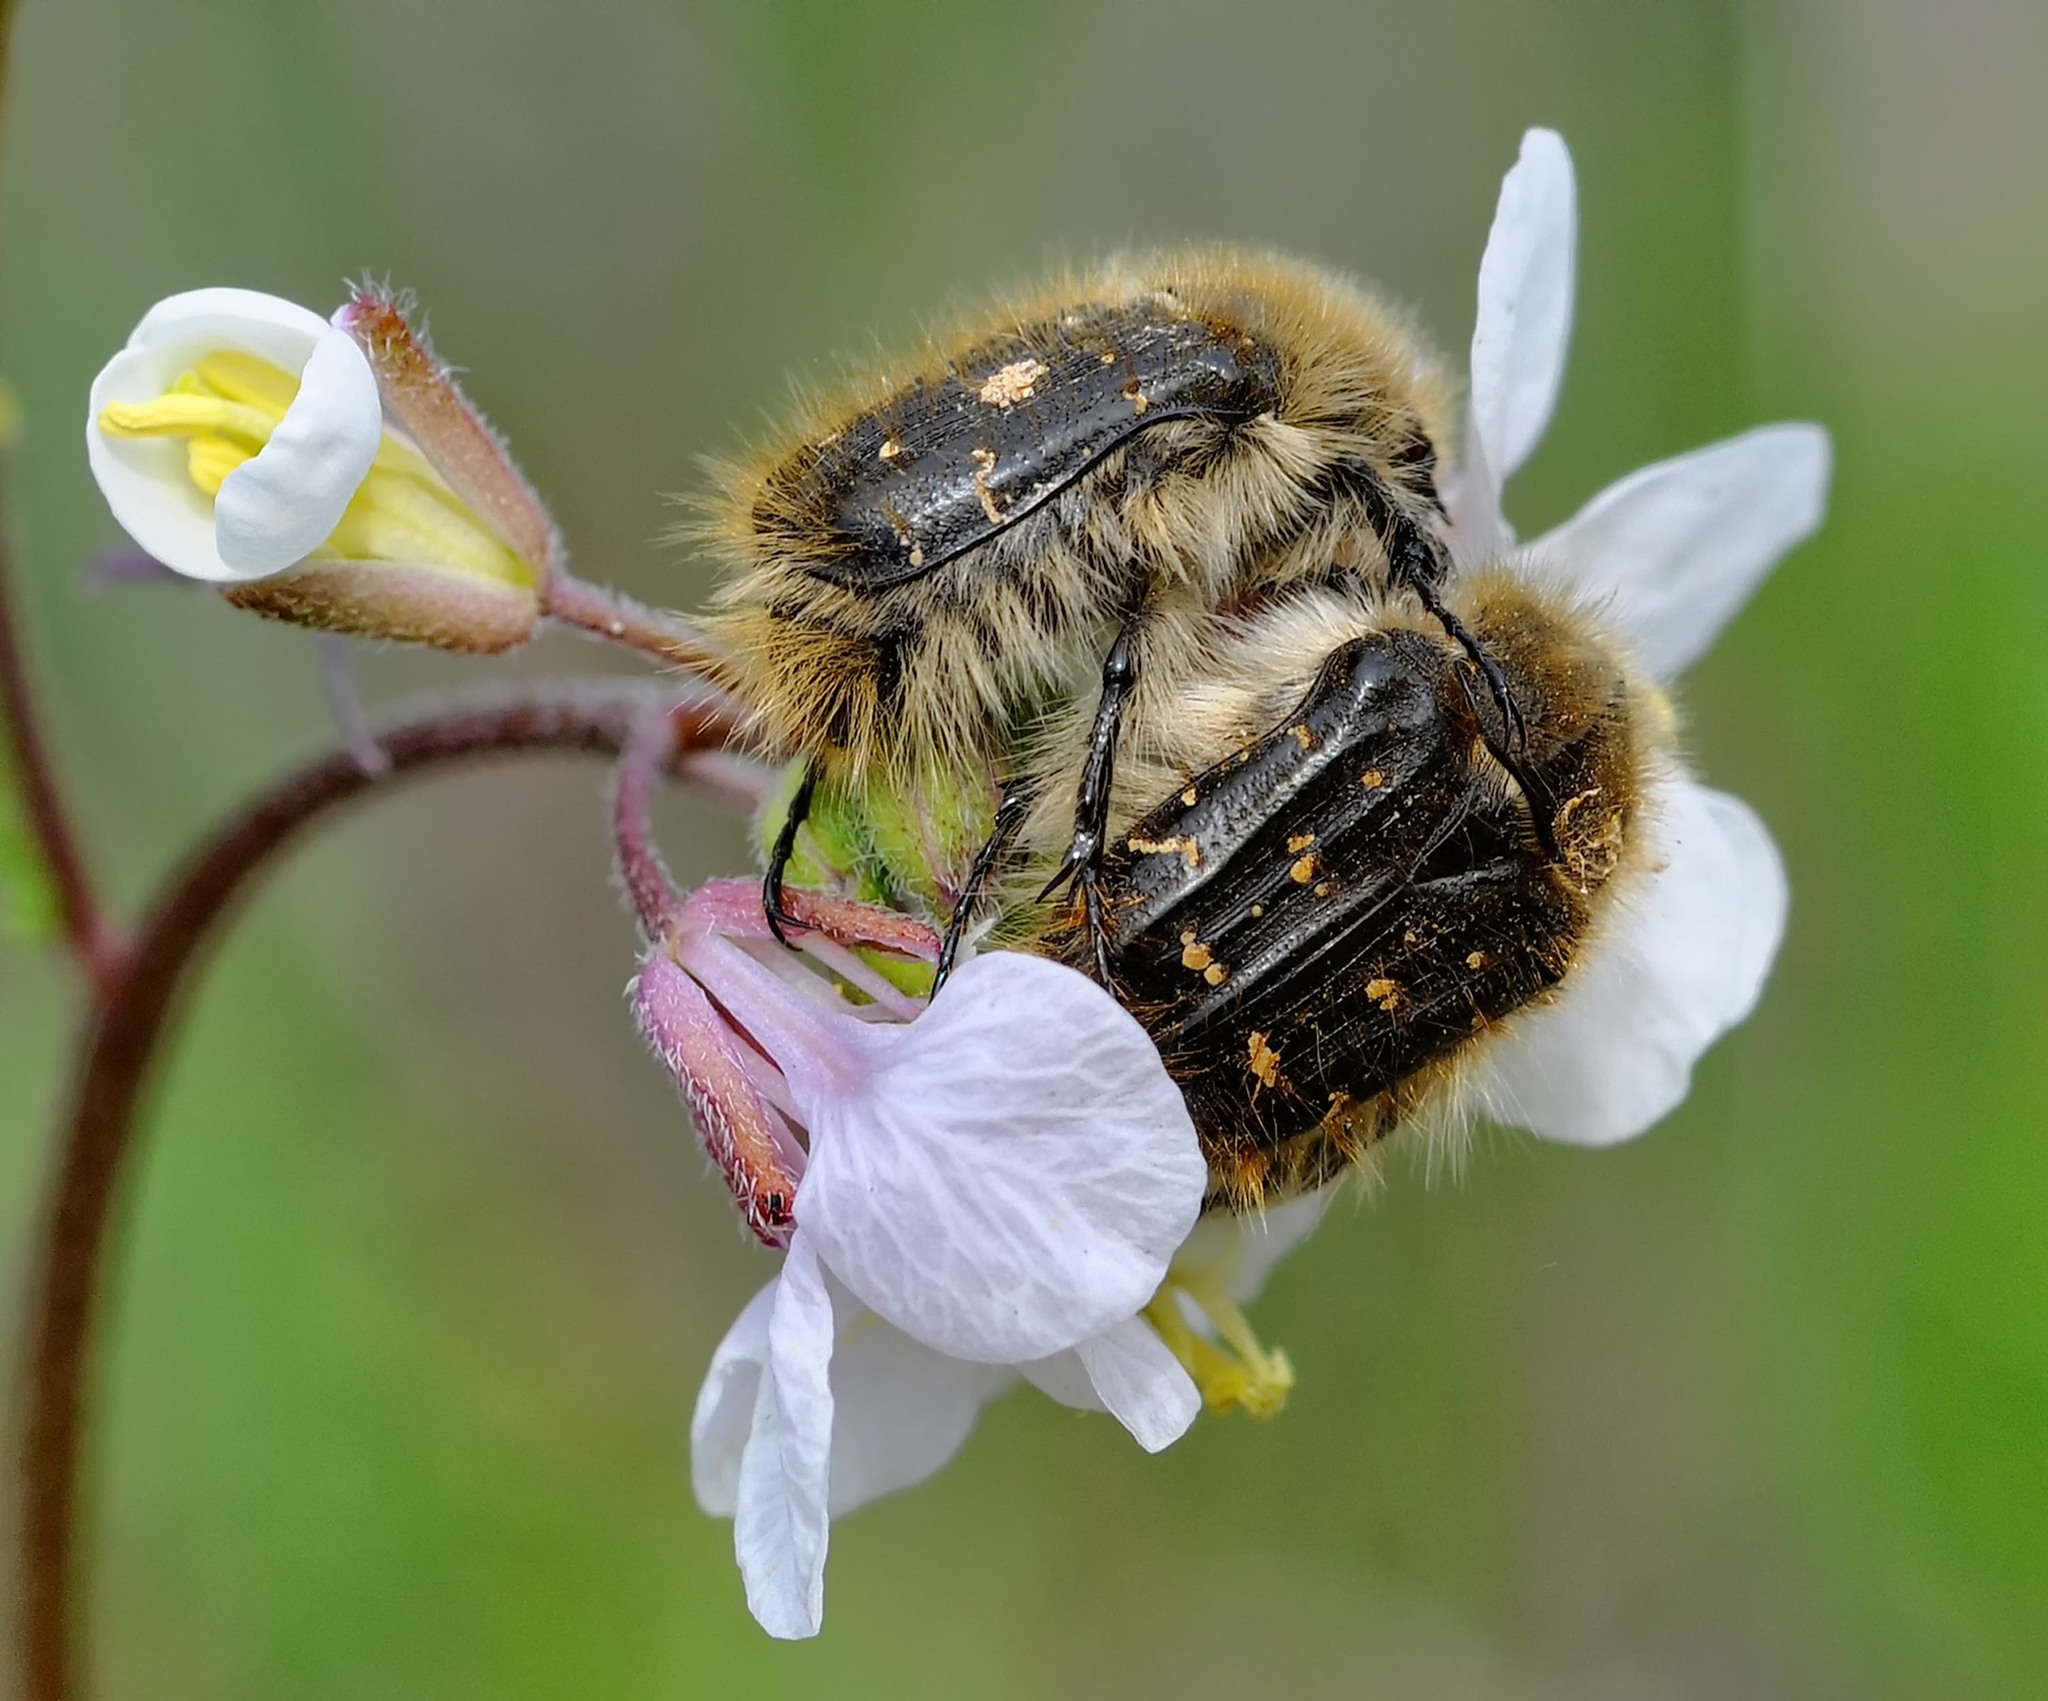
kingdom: Animalia
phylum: Arthropoda
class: Insecta
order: Coleoptera
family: Scarabaeidae
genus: Tropinota
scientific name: Tropinota squalida
